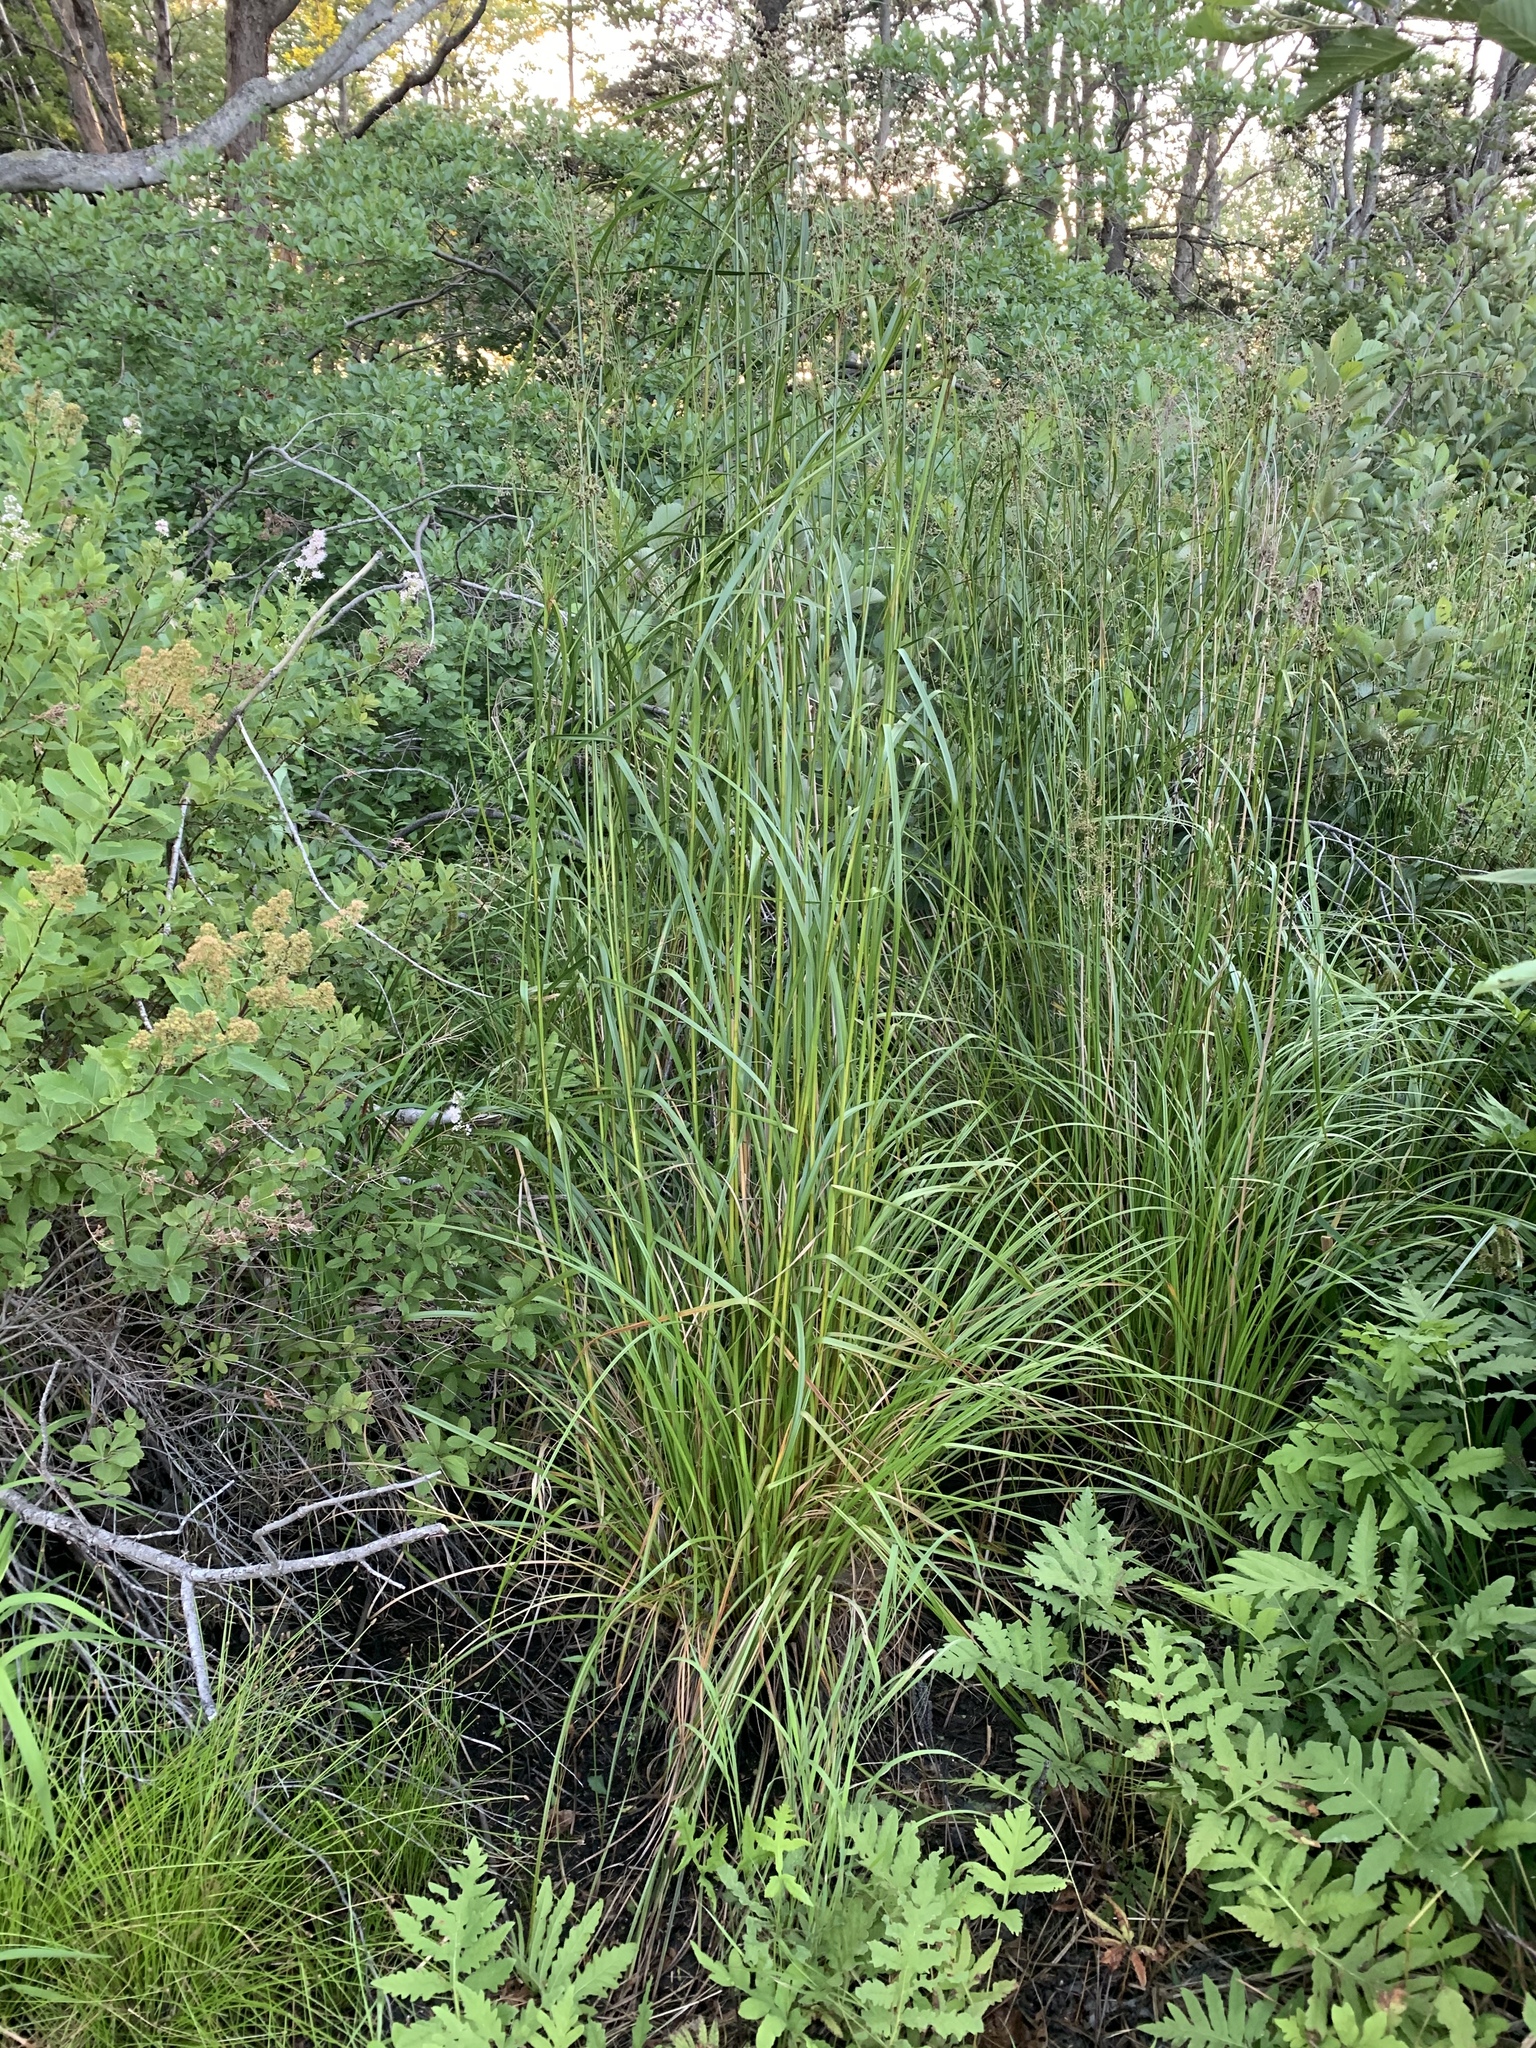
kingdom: Plantae
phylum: Tracheophyta
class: Liliopsida
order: Poales
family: Cyperaceae
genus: Scirpus
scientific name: Scirpus cyperinus
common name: Black-sheathed bulrush
